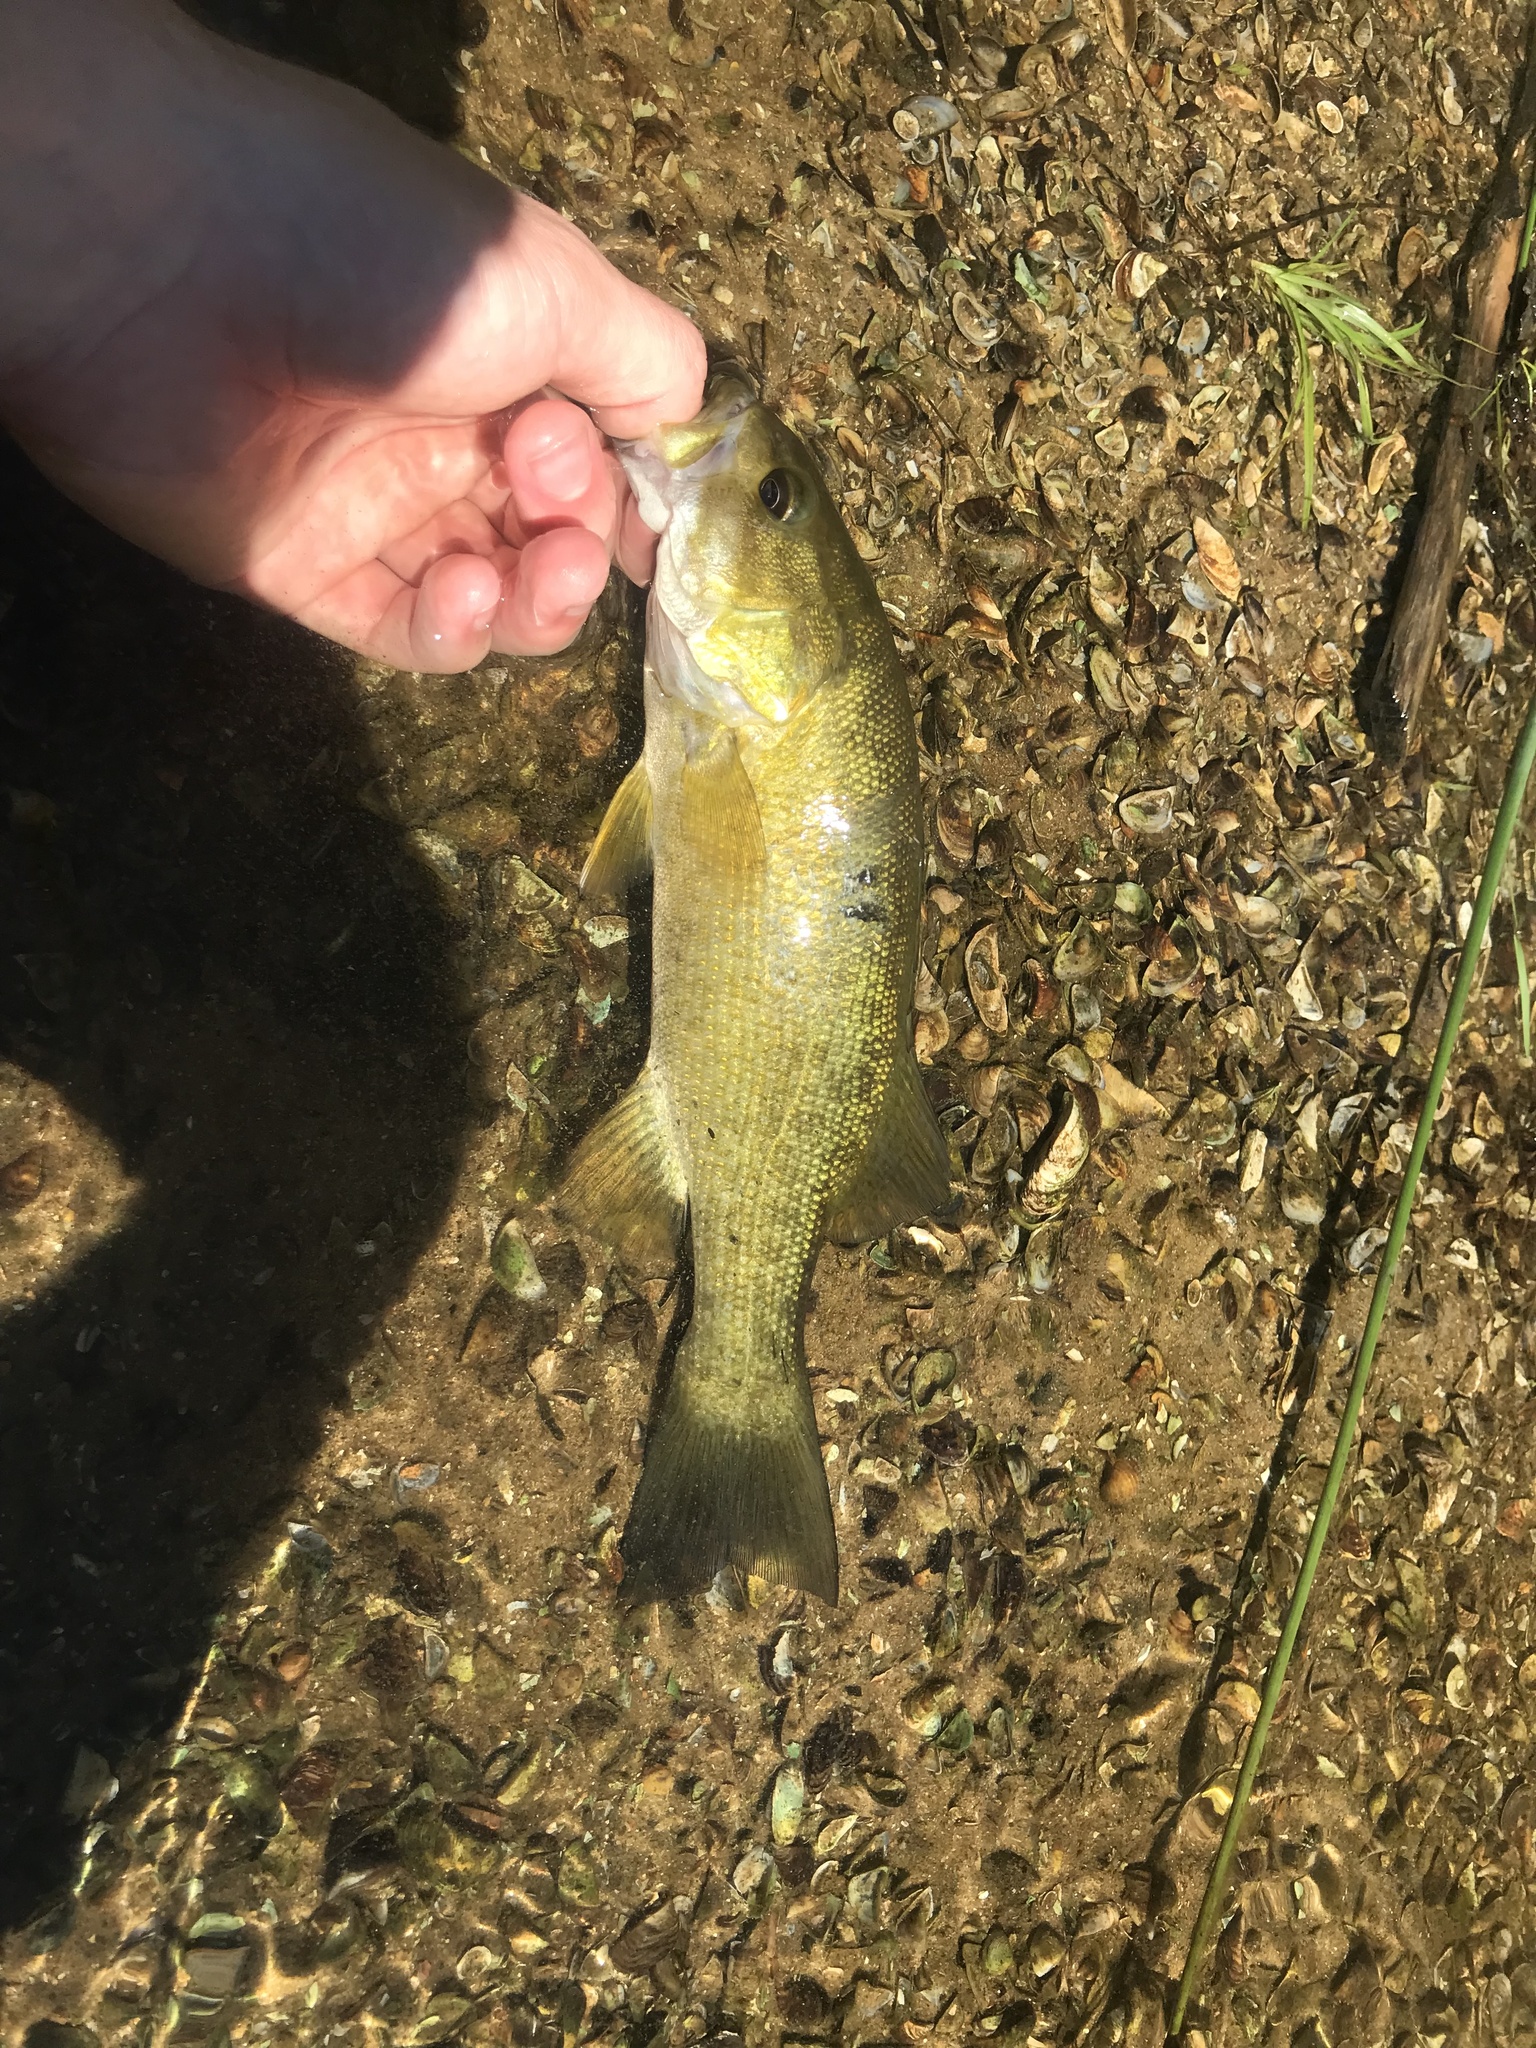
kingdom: Animalia
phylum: Chordata
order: Perciformes
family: Centrarchidae
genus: Micropterus
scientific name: Micropterus dolomieu
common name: Smallmouth bass
